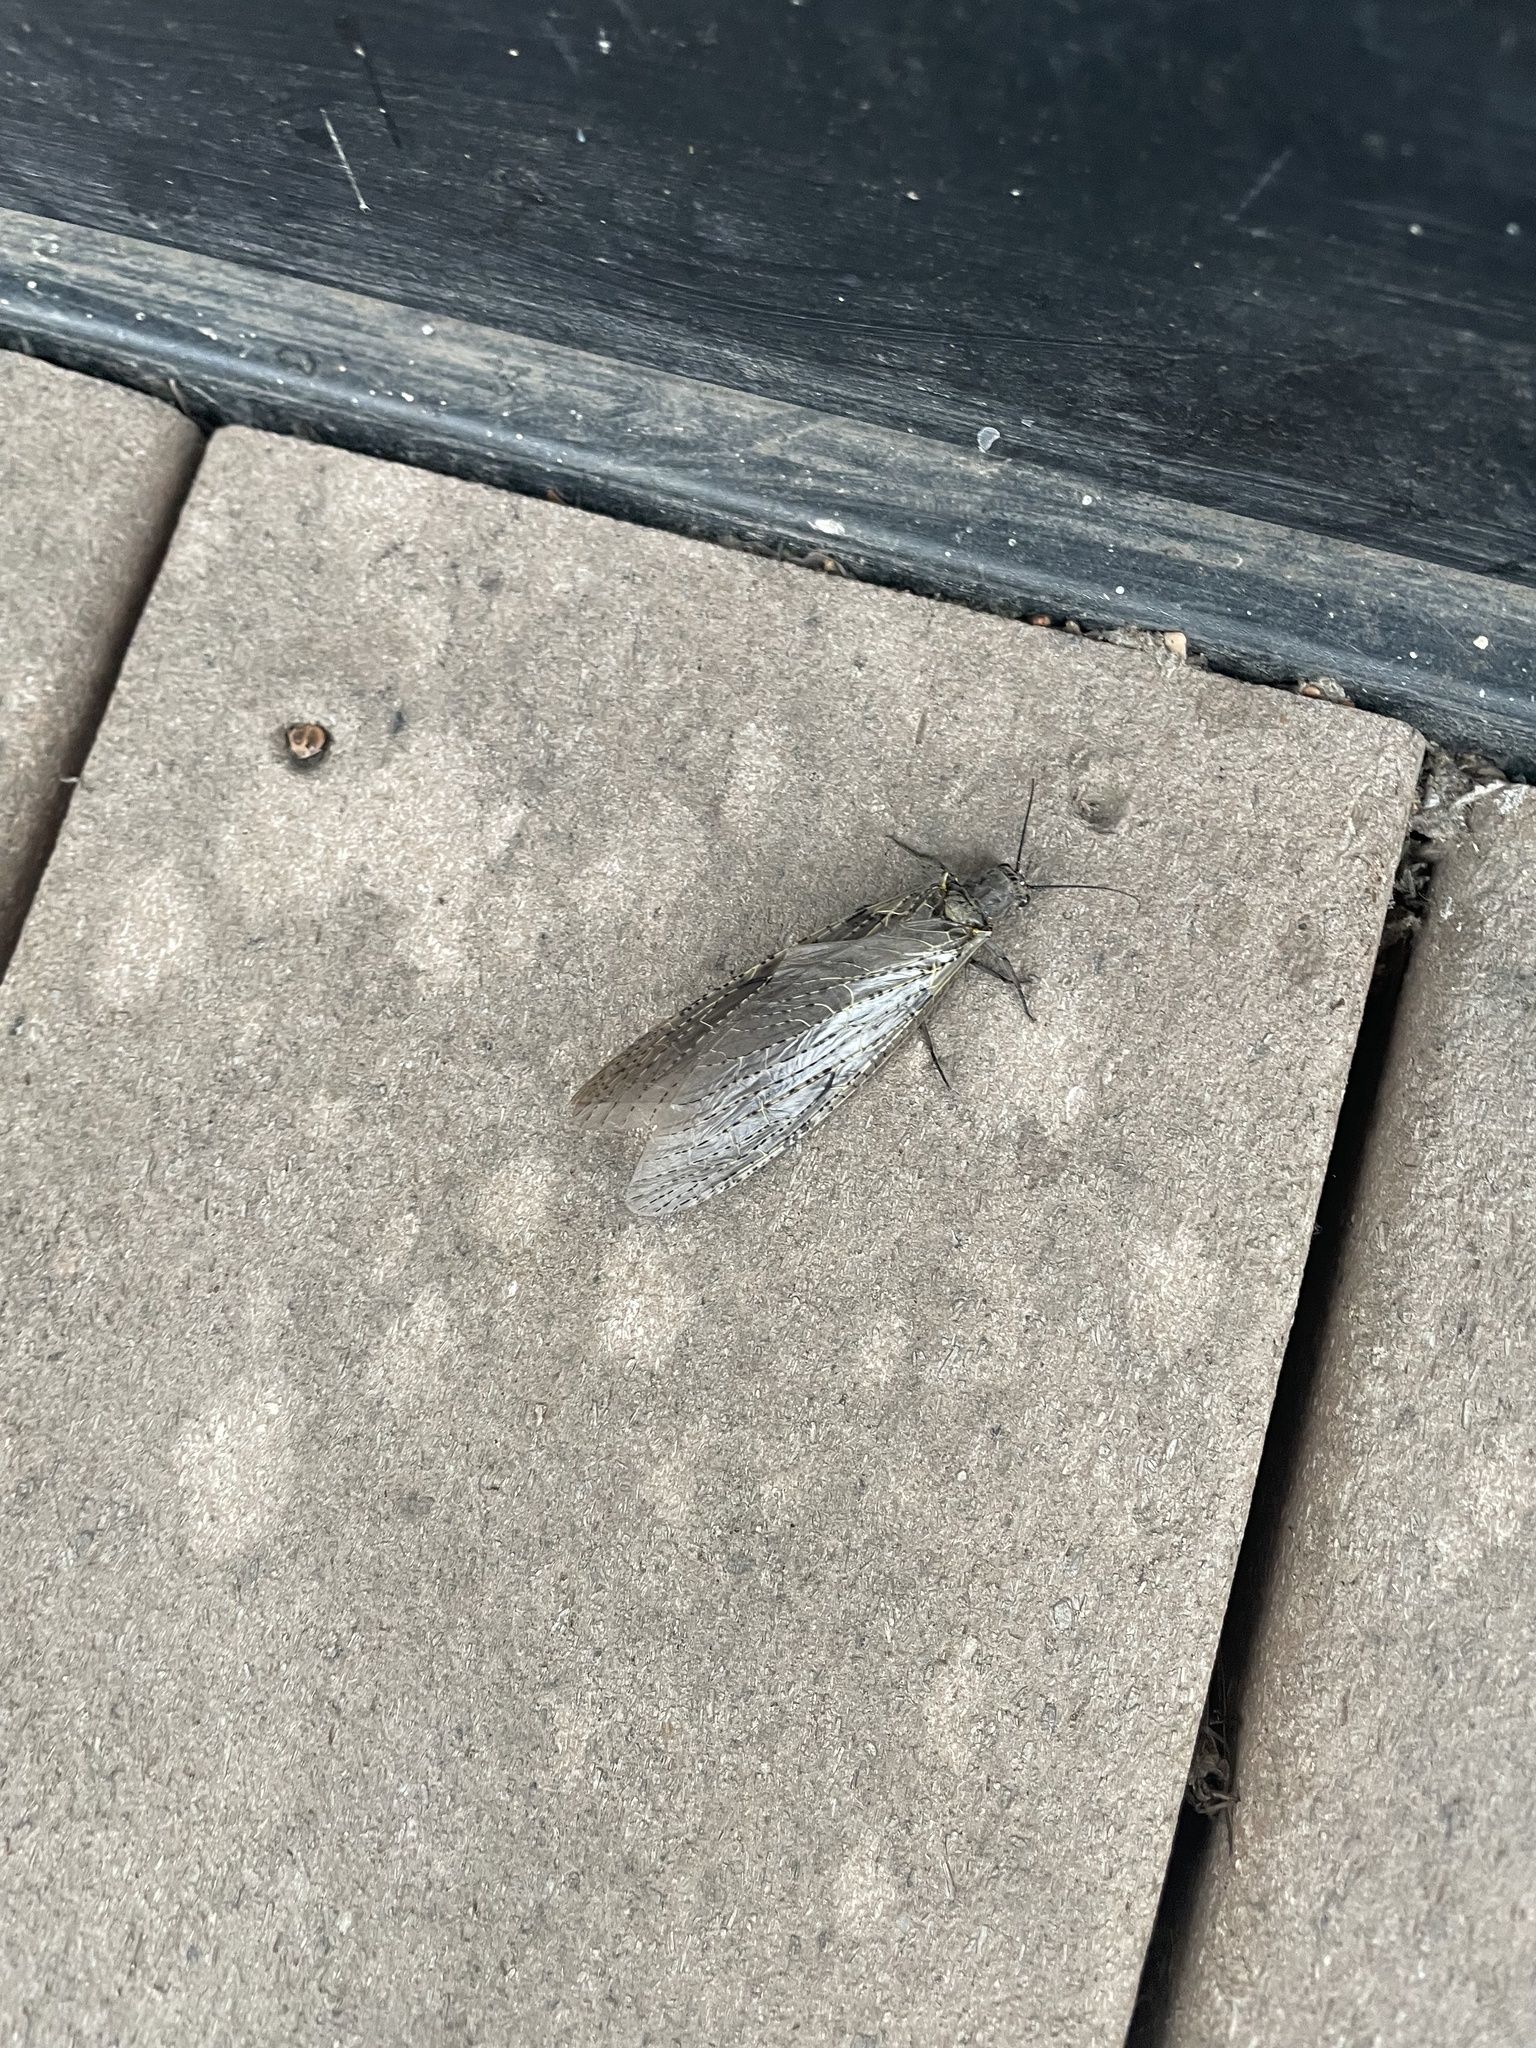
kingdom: Animalia
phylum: Arthropoda
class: Insecta
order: Megaloptera
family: Corydalidae
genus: Chauliodes
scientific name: Chauliodes rastricornis
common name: Spring fishfly
